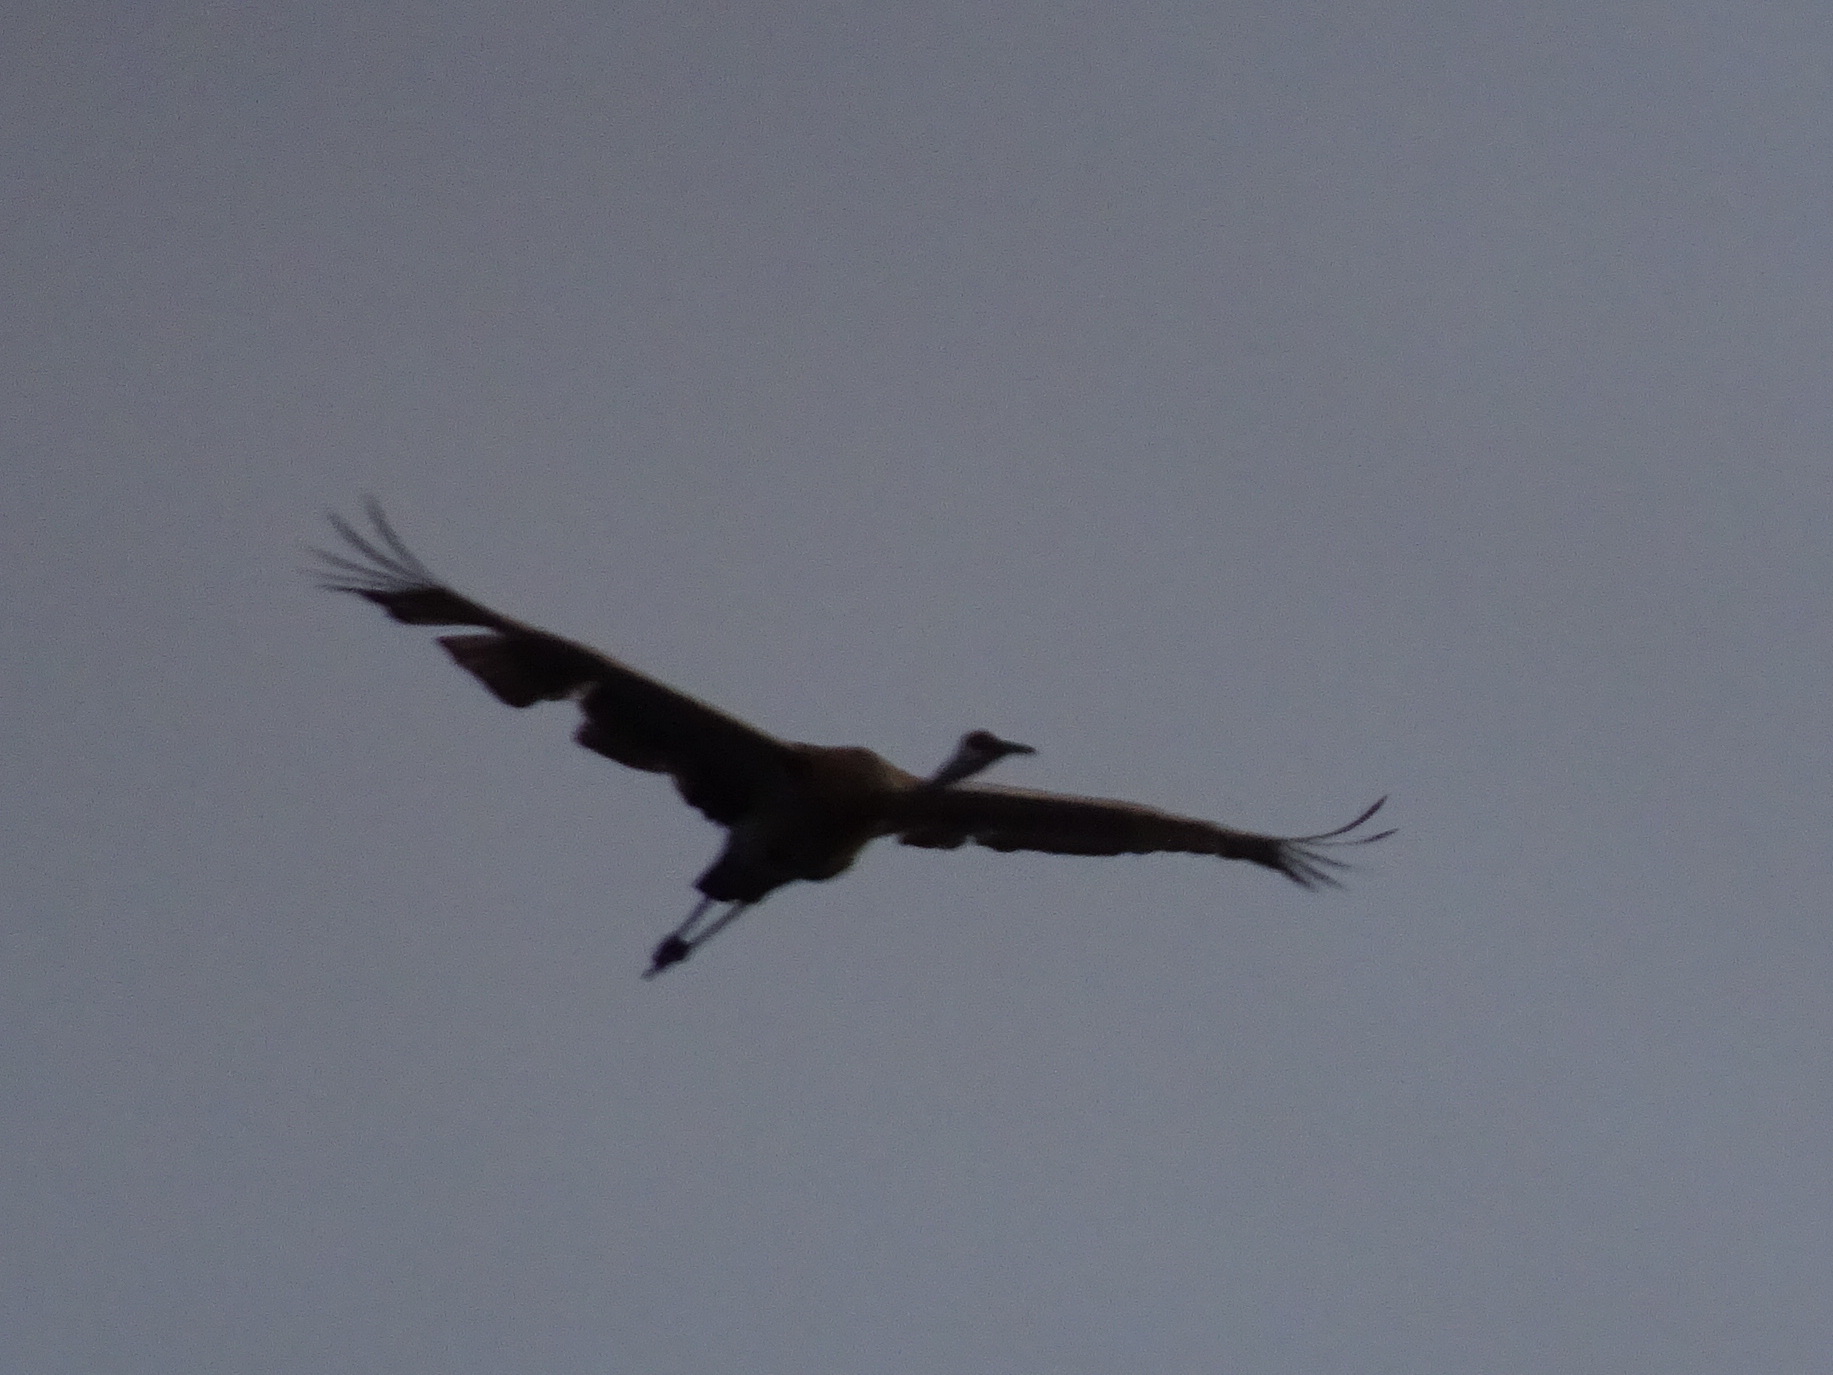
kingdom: Animalia
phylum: Chordata
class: Aves
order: Gruiformes
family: Gruidae
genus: Grus
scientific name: Grus canadensis
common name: Sandhill crane
